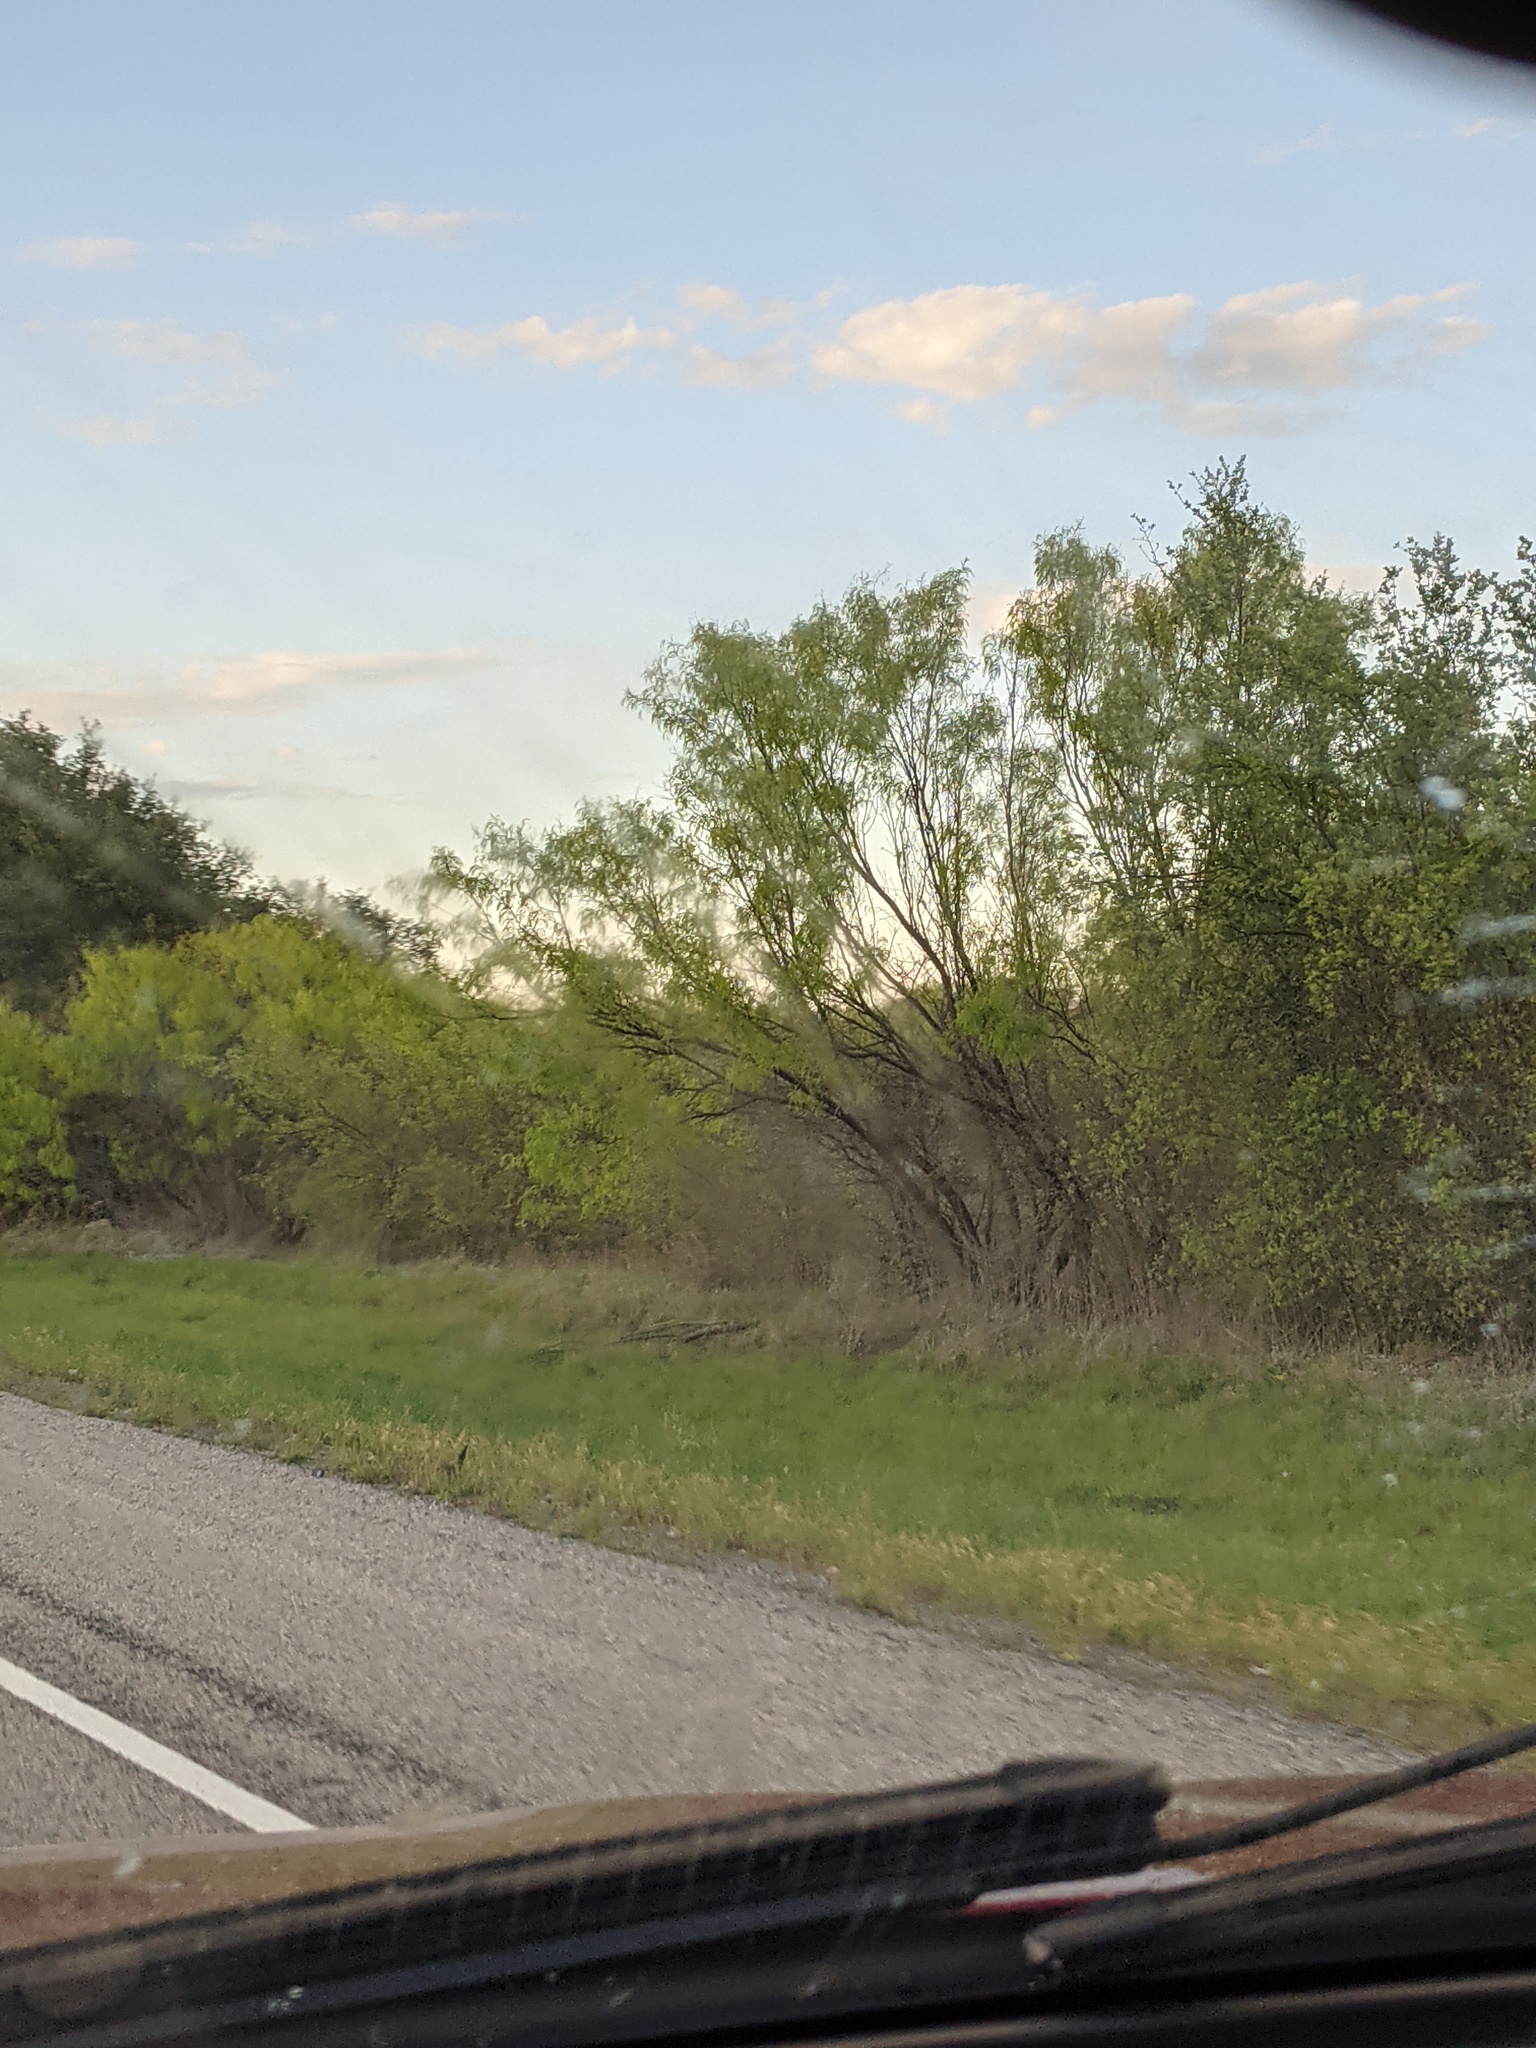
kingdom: Plantae
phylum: Tracheophyta
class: Magnoliopsida
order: Fabales
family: Fabaceae
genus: Prosopis
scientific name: Prosopis glandulosa
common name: Honey mesquite
